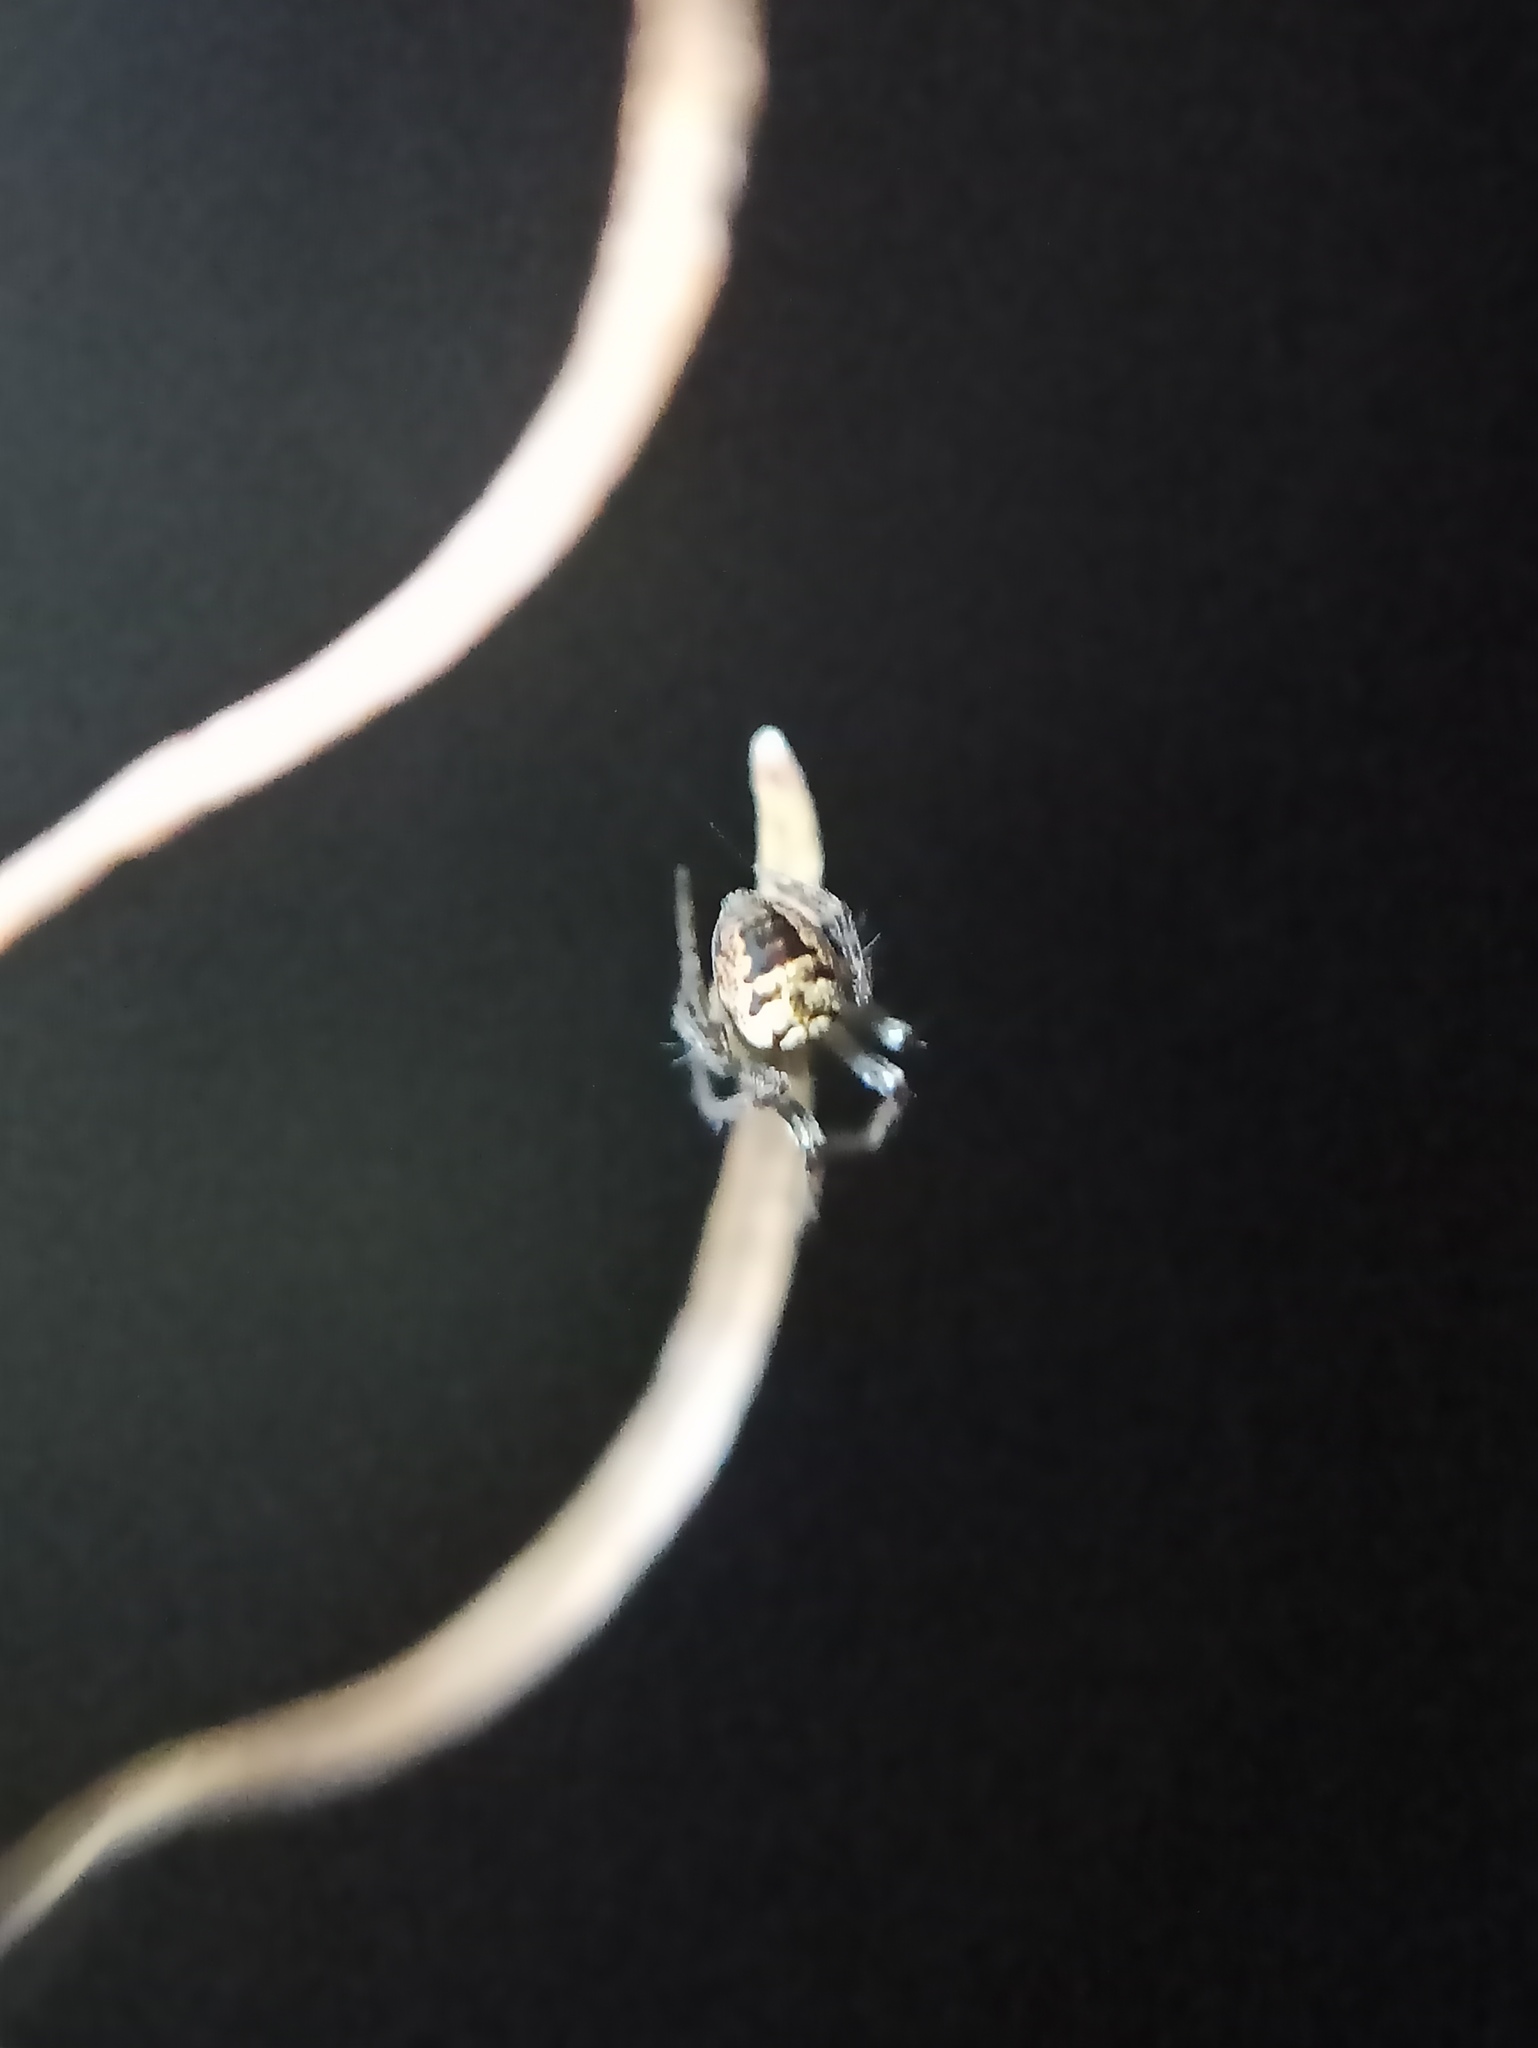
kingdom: Animalia
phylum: Arthropoda
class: Arachnida
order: Araneae
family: Araneidae
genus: Zilla
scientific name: Zilla diodia
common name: Zilla diodia
